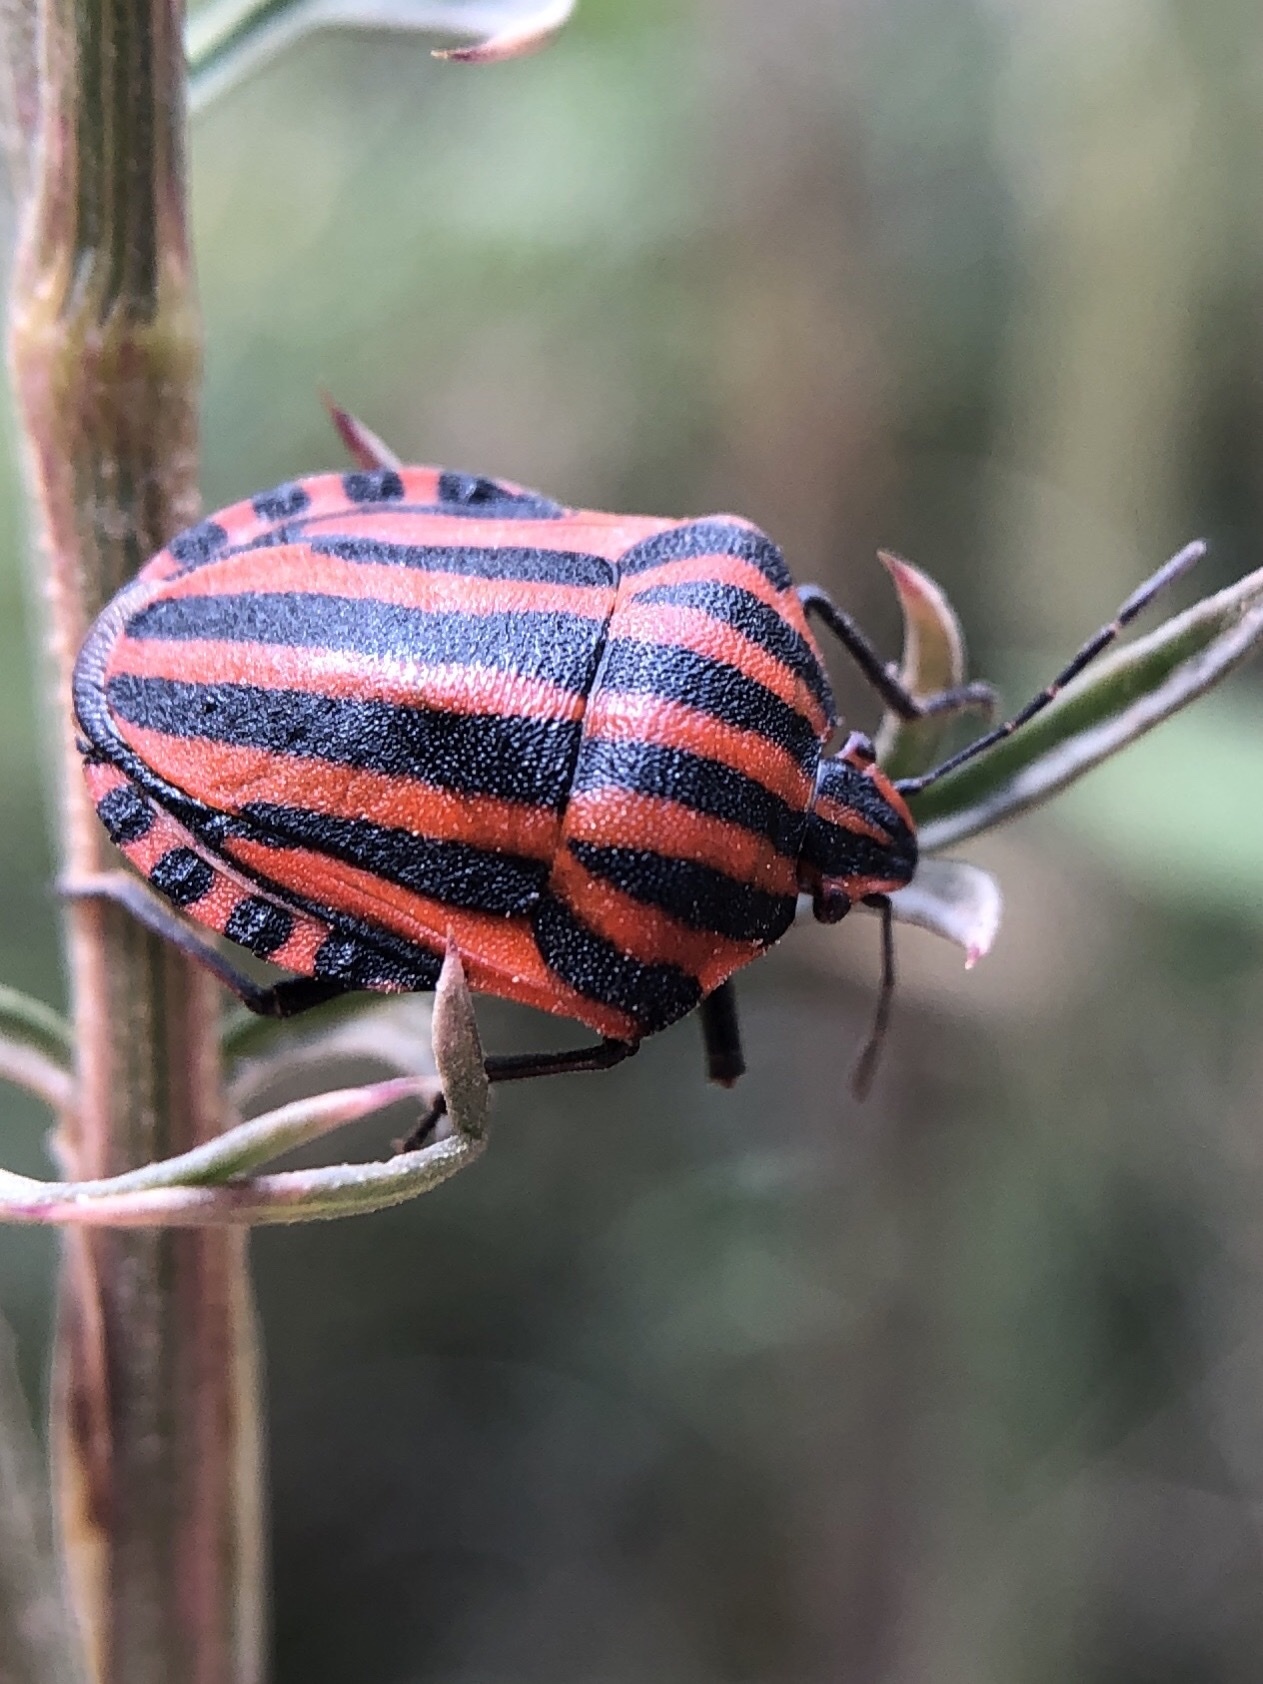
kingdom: Animalia
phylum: Arthropoda
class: Insecta
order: Hemiptera
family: Pentatomidae
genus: Graphosoma
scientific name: Graphosoma italicum
